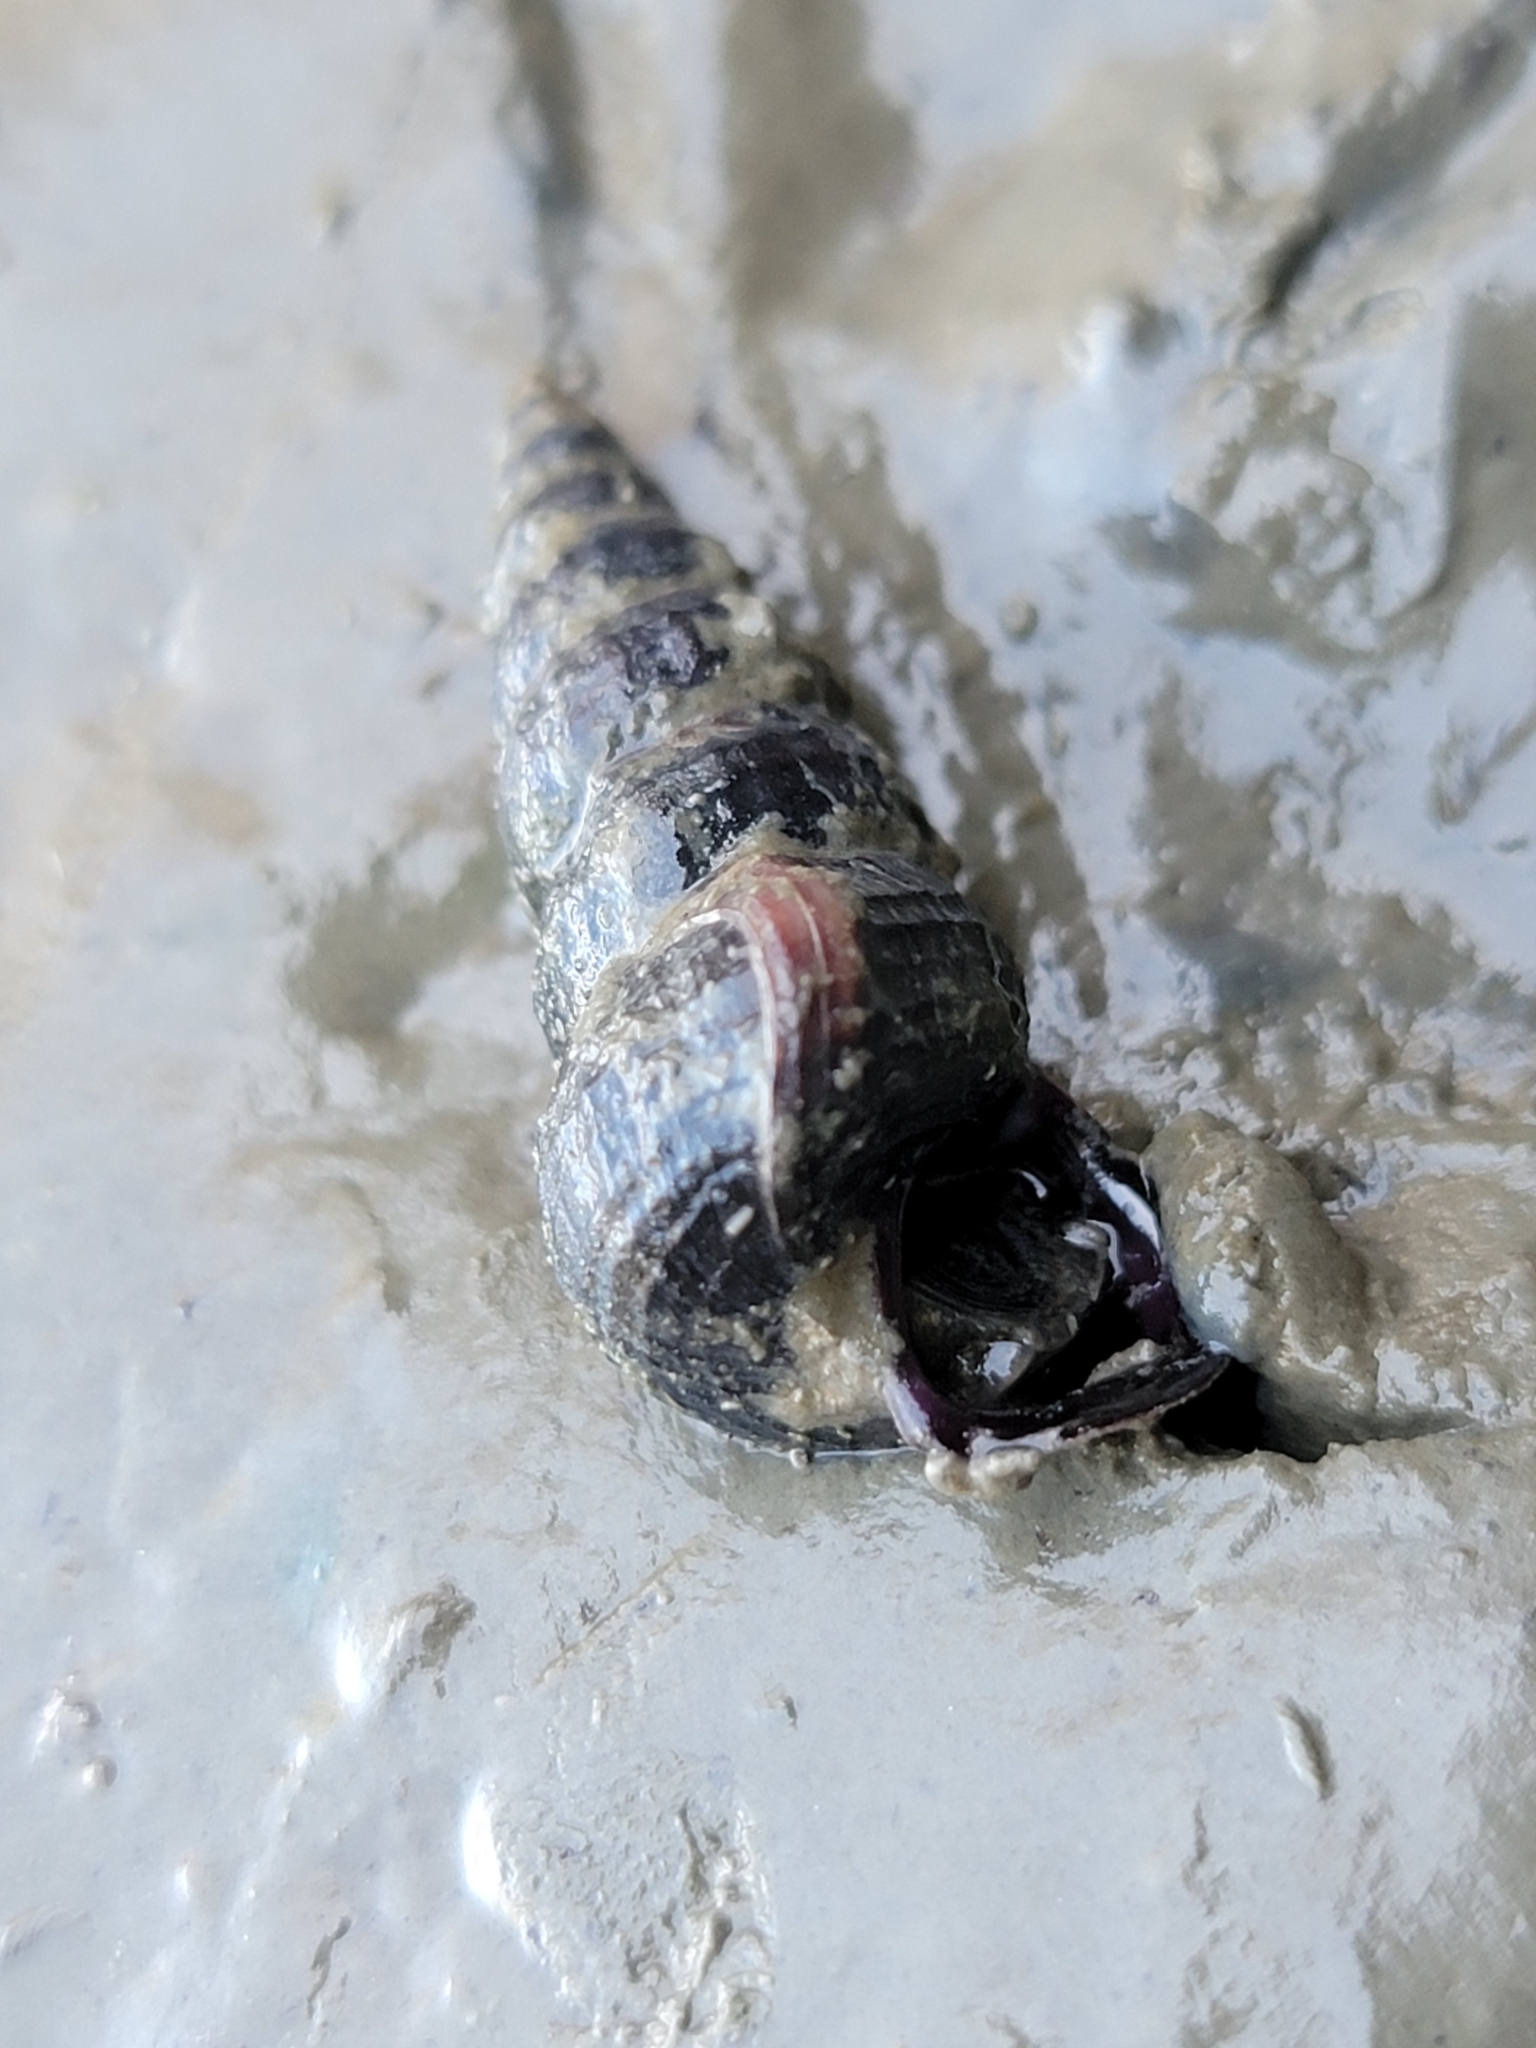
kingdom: Animalia
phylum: Mollusca
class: Gastropoda
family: Potamididae
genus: Cerithideopsis
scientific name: Cerithideopsis californica
